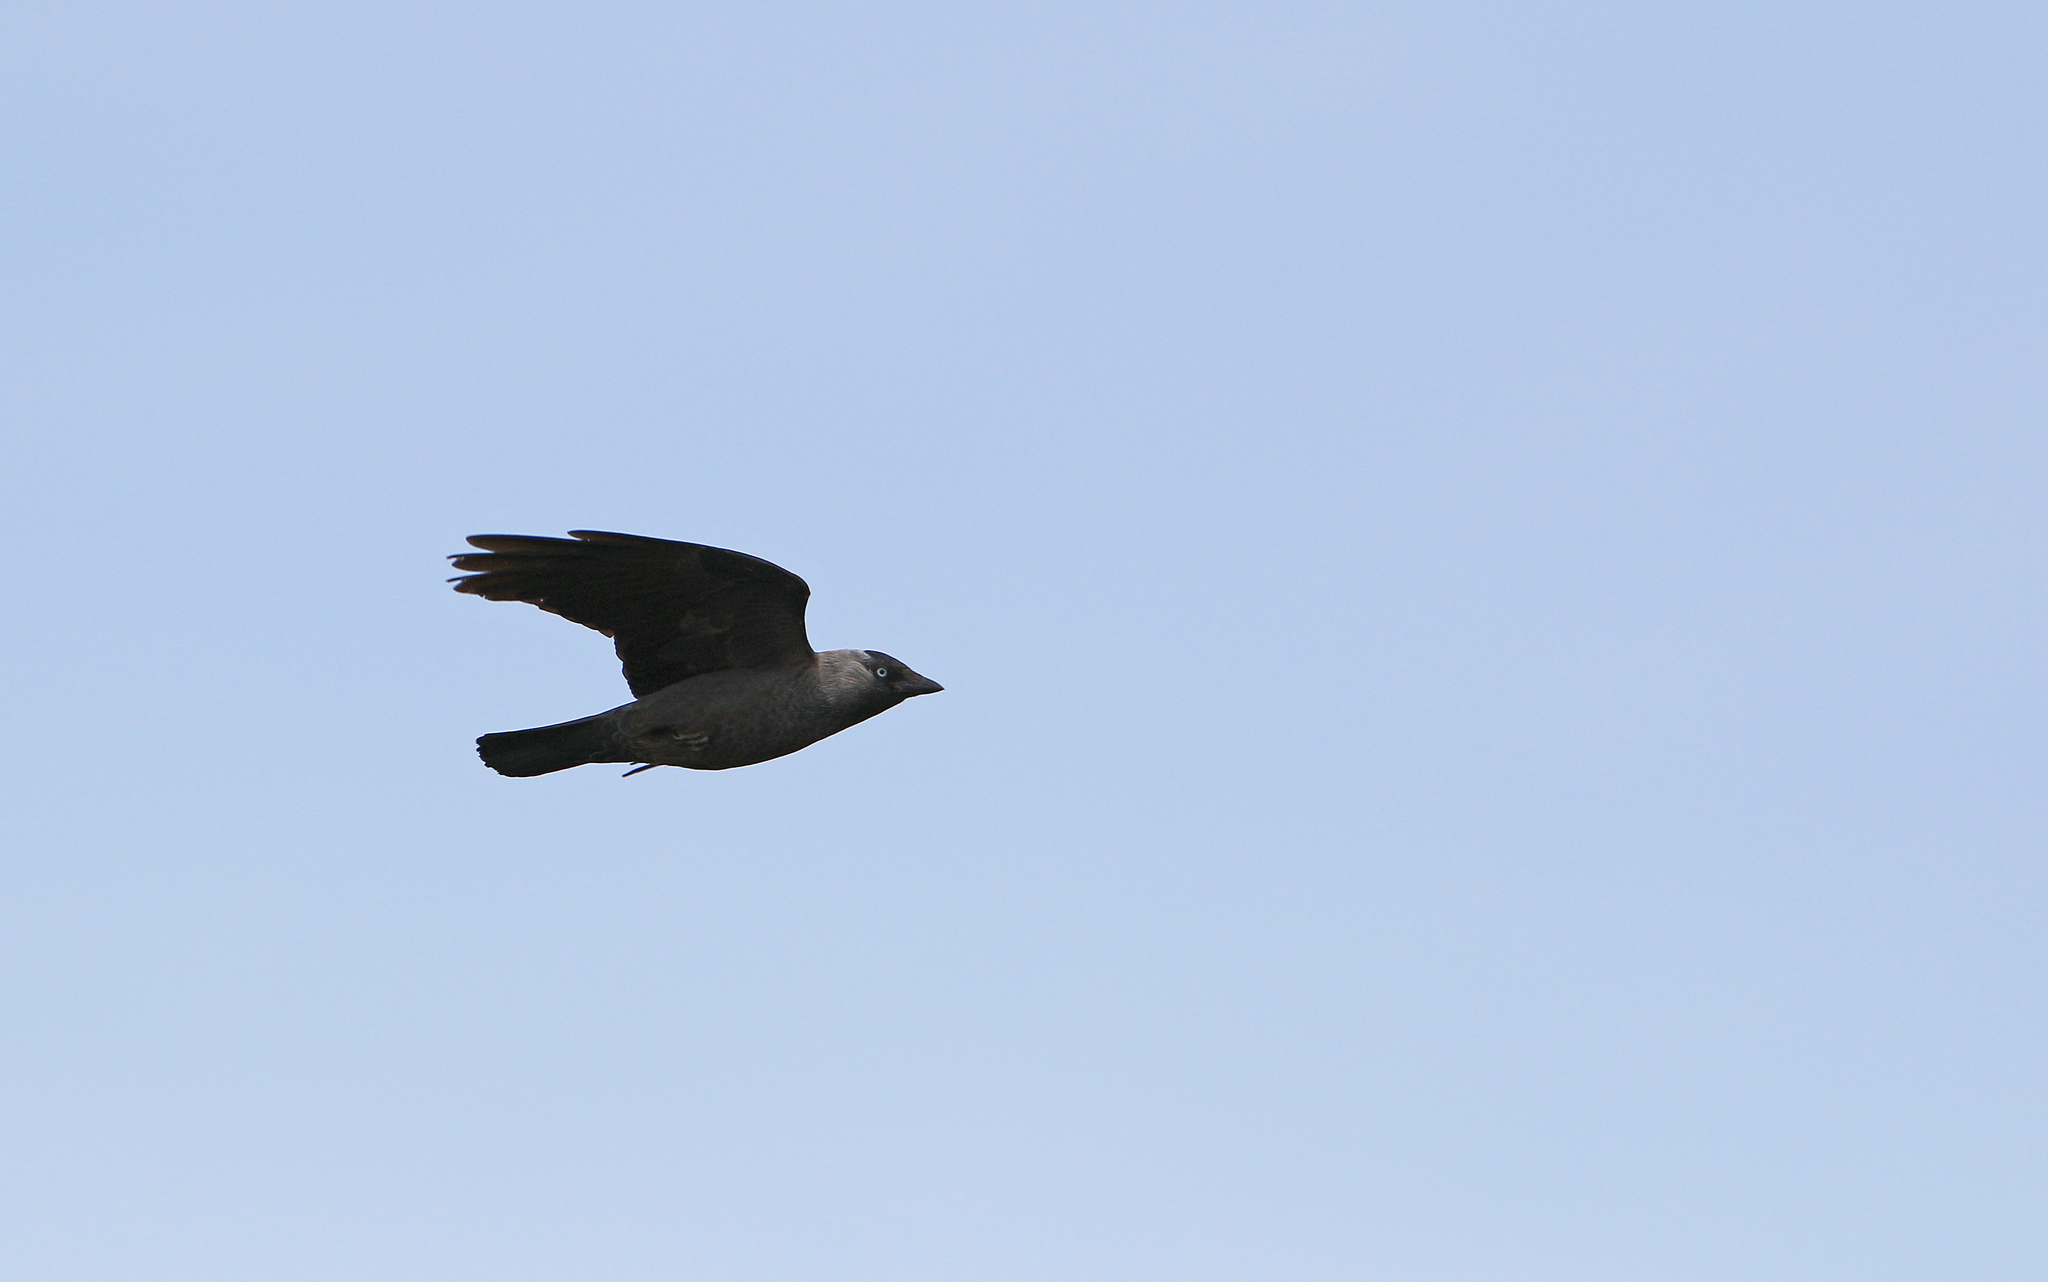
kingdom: Animalia
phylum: Chordata
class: Aves
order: Passeriformes
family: Corvidae
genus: Coloeus
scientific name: Coloeus monedula
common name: Western jackdaw
